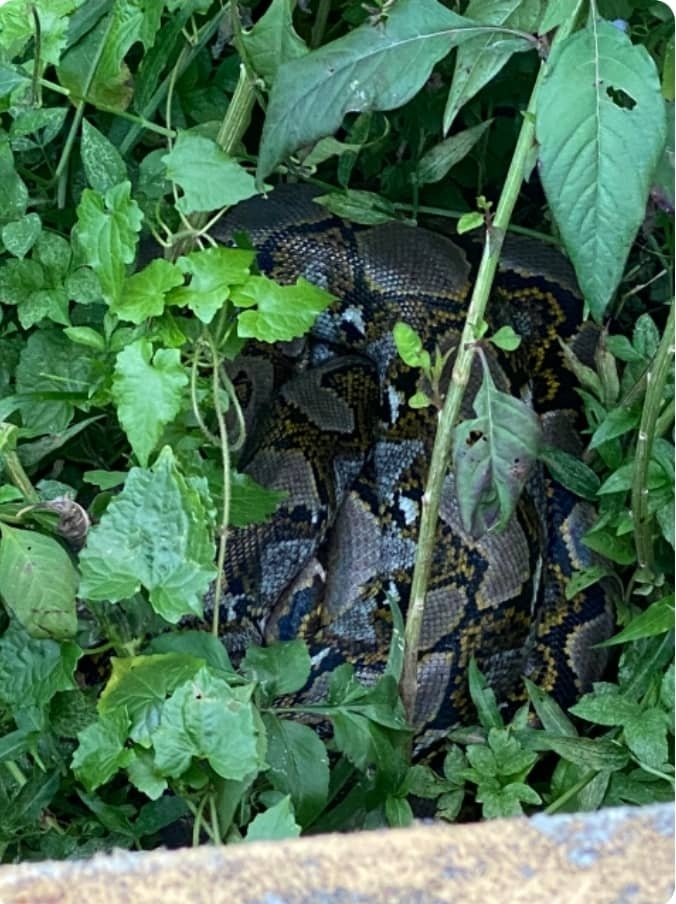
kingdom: Animalia
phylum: Chordata
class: Squamata
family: Pythonidae
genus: Malayopython
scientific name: Malayopython reticulatus
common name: Reticulated python
